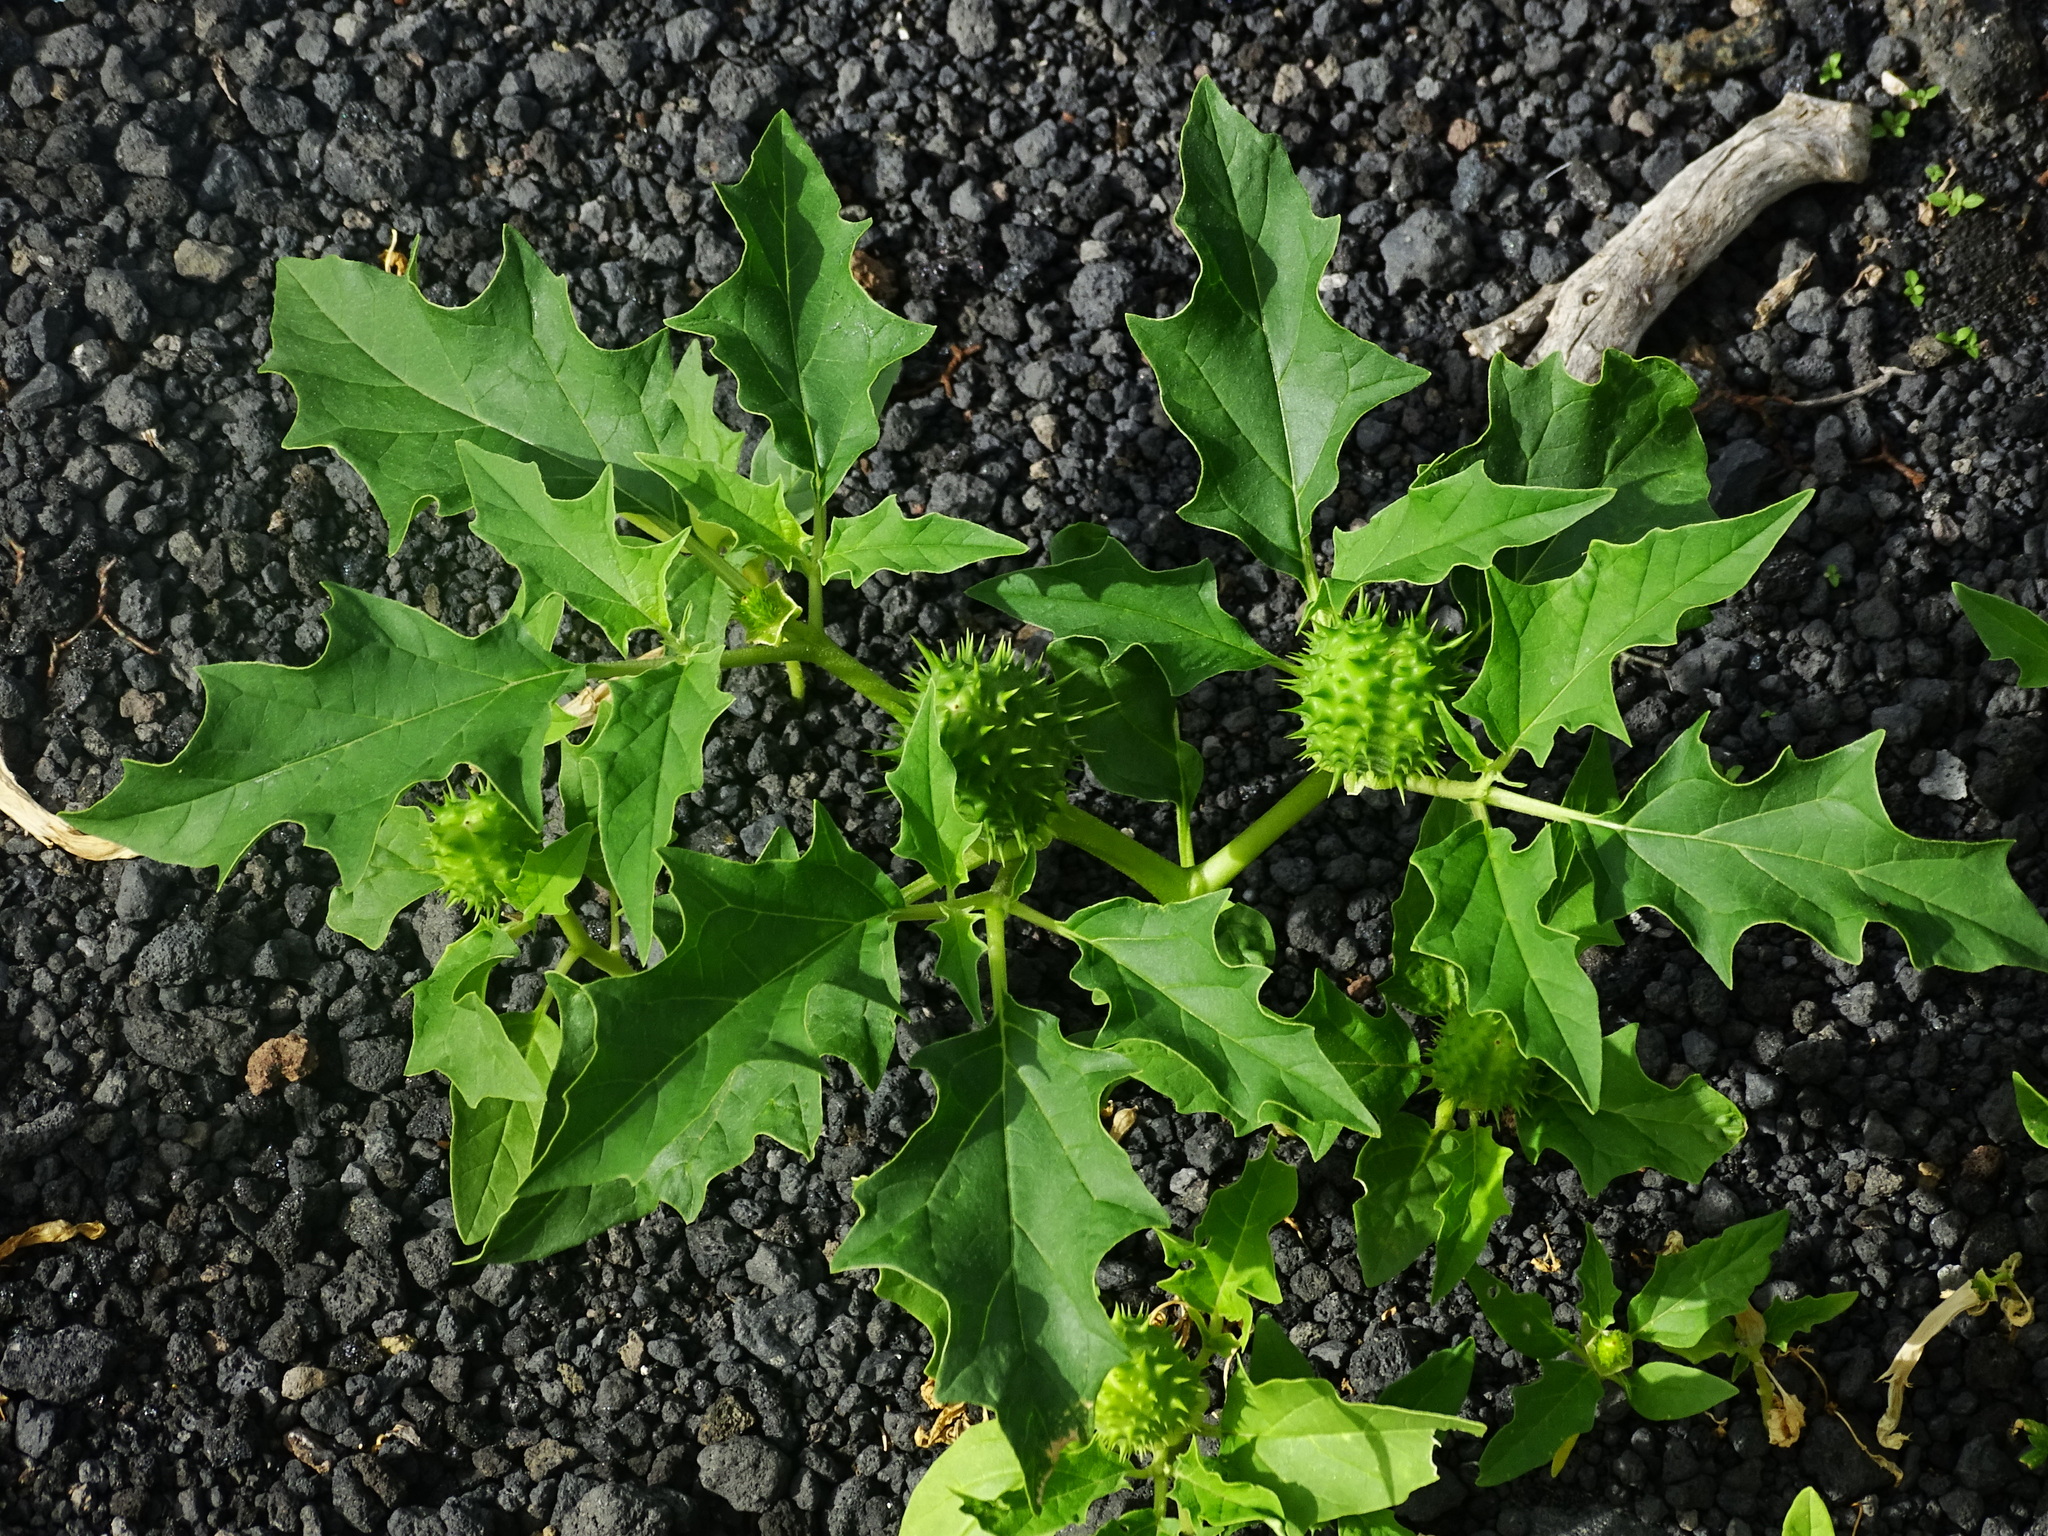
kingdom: Plantae
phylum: Tracheophyta
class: Magnoliopsida
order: Solanales
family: Solanaceae
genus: Datura
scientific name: Datura stramonium
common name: Thorn-apple
